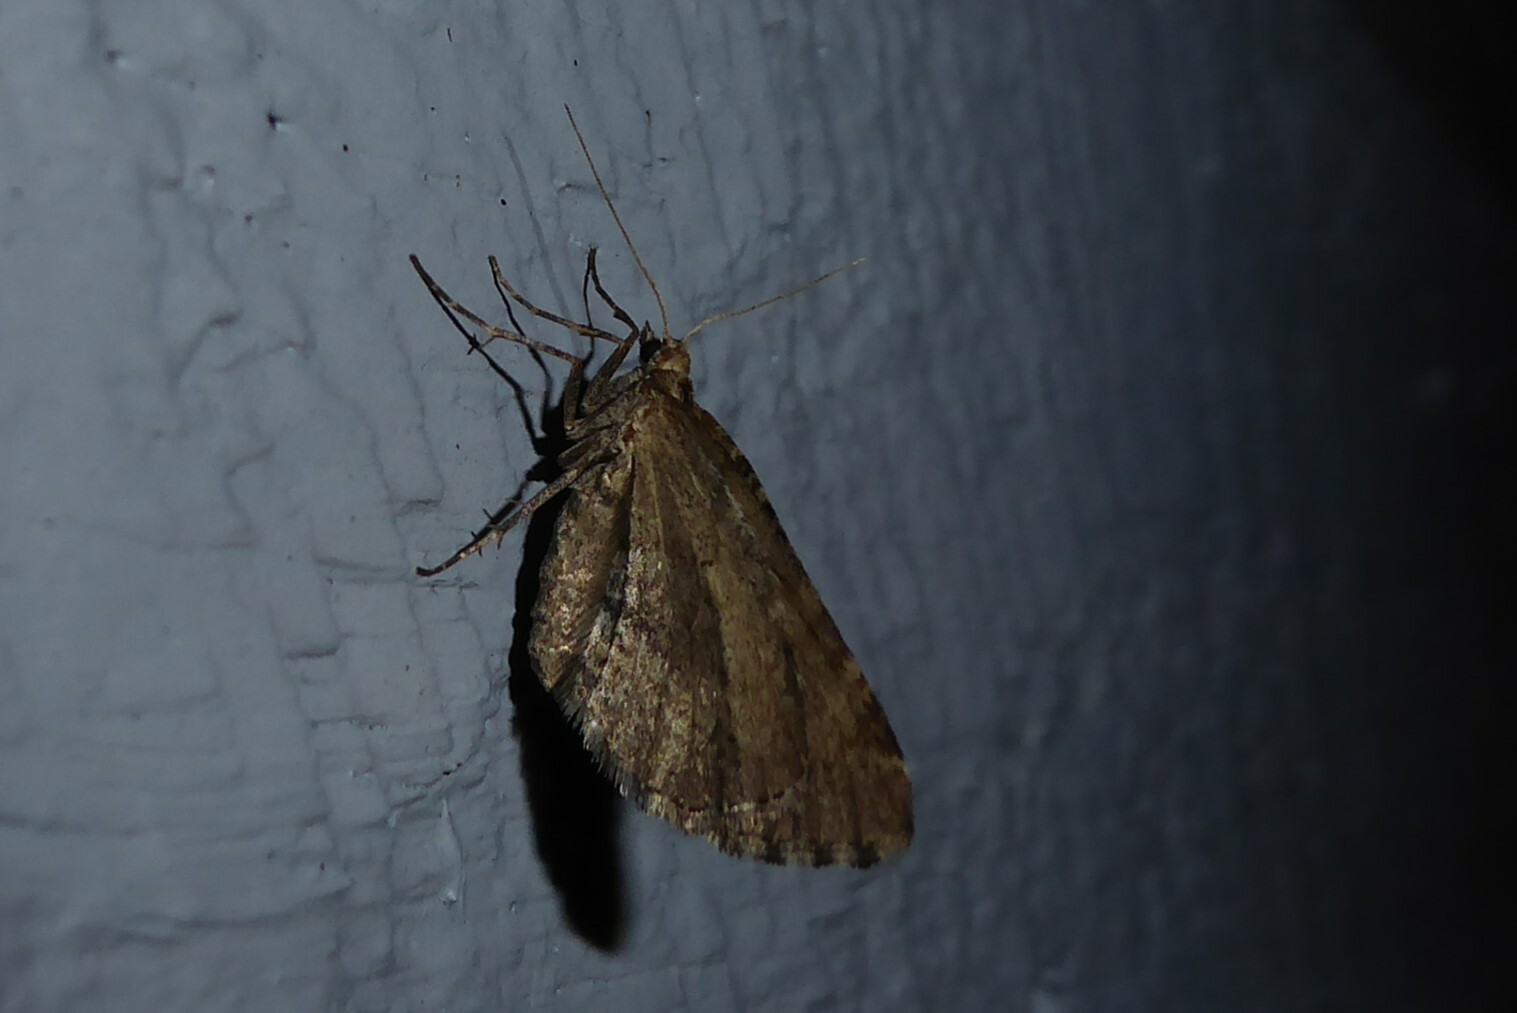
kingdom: Animalia
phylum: Arthropoda
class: Insecta
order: Lepidoptera
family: Geometridae
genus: Asaphodes
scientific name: Asaphodes aegrota
